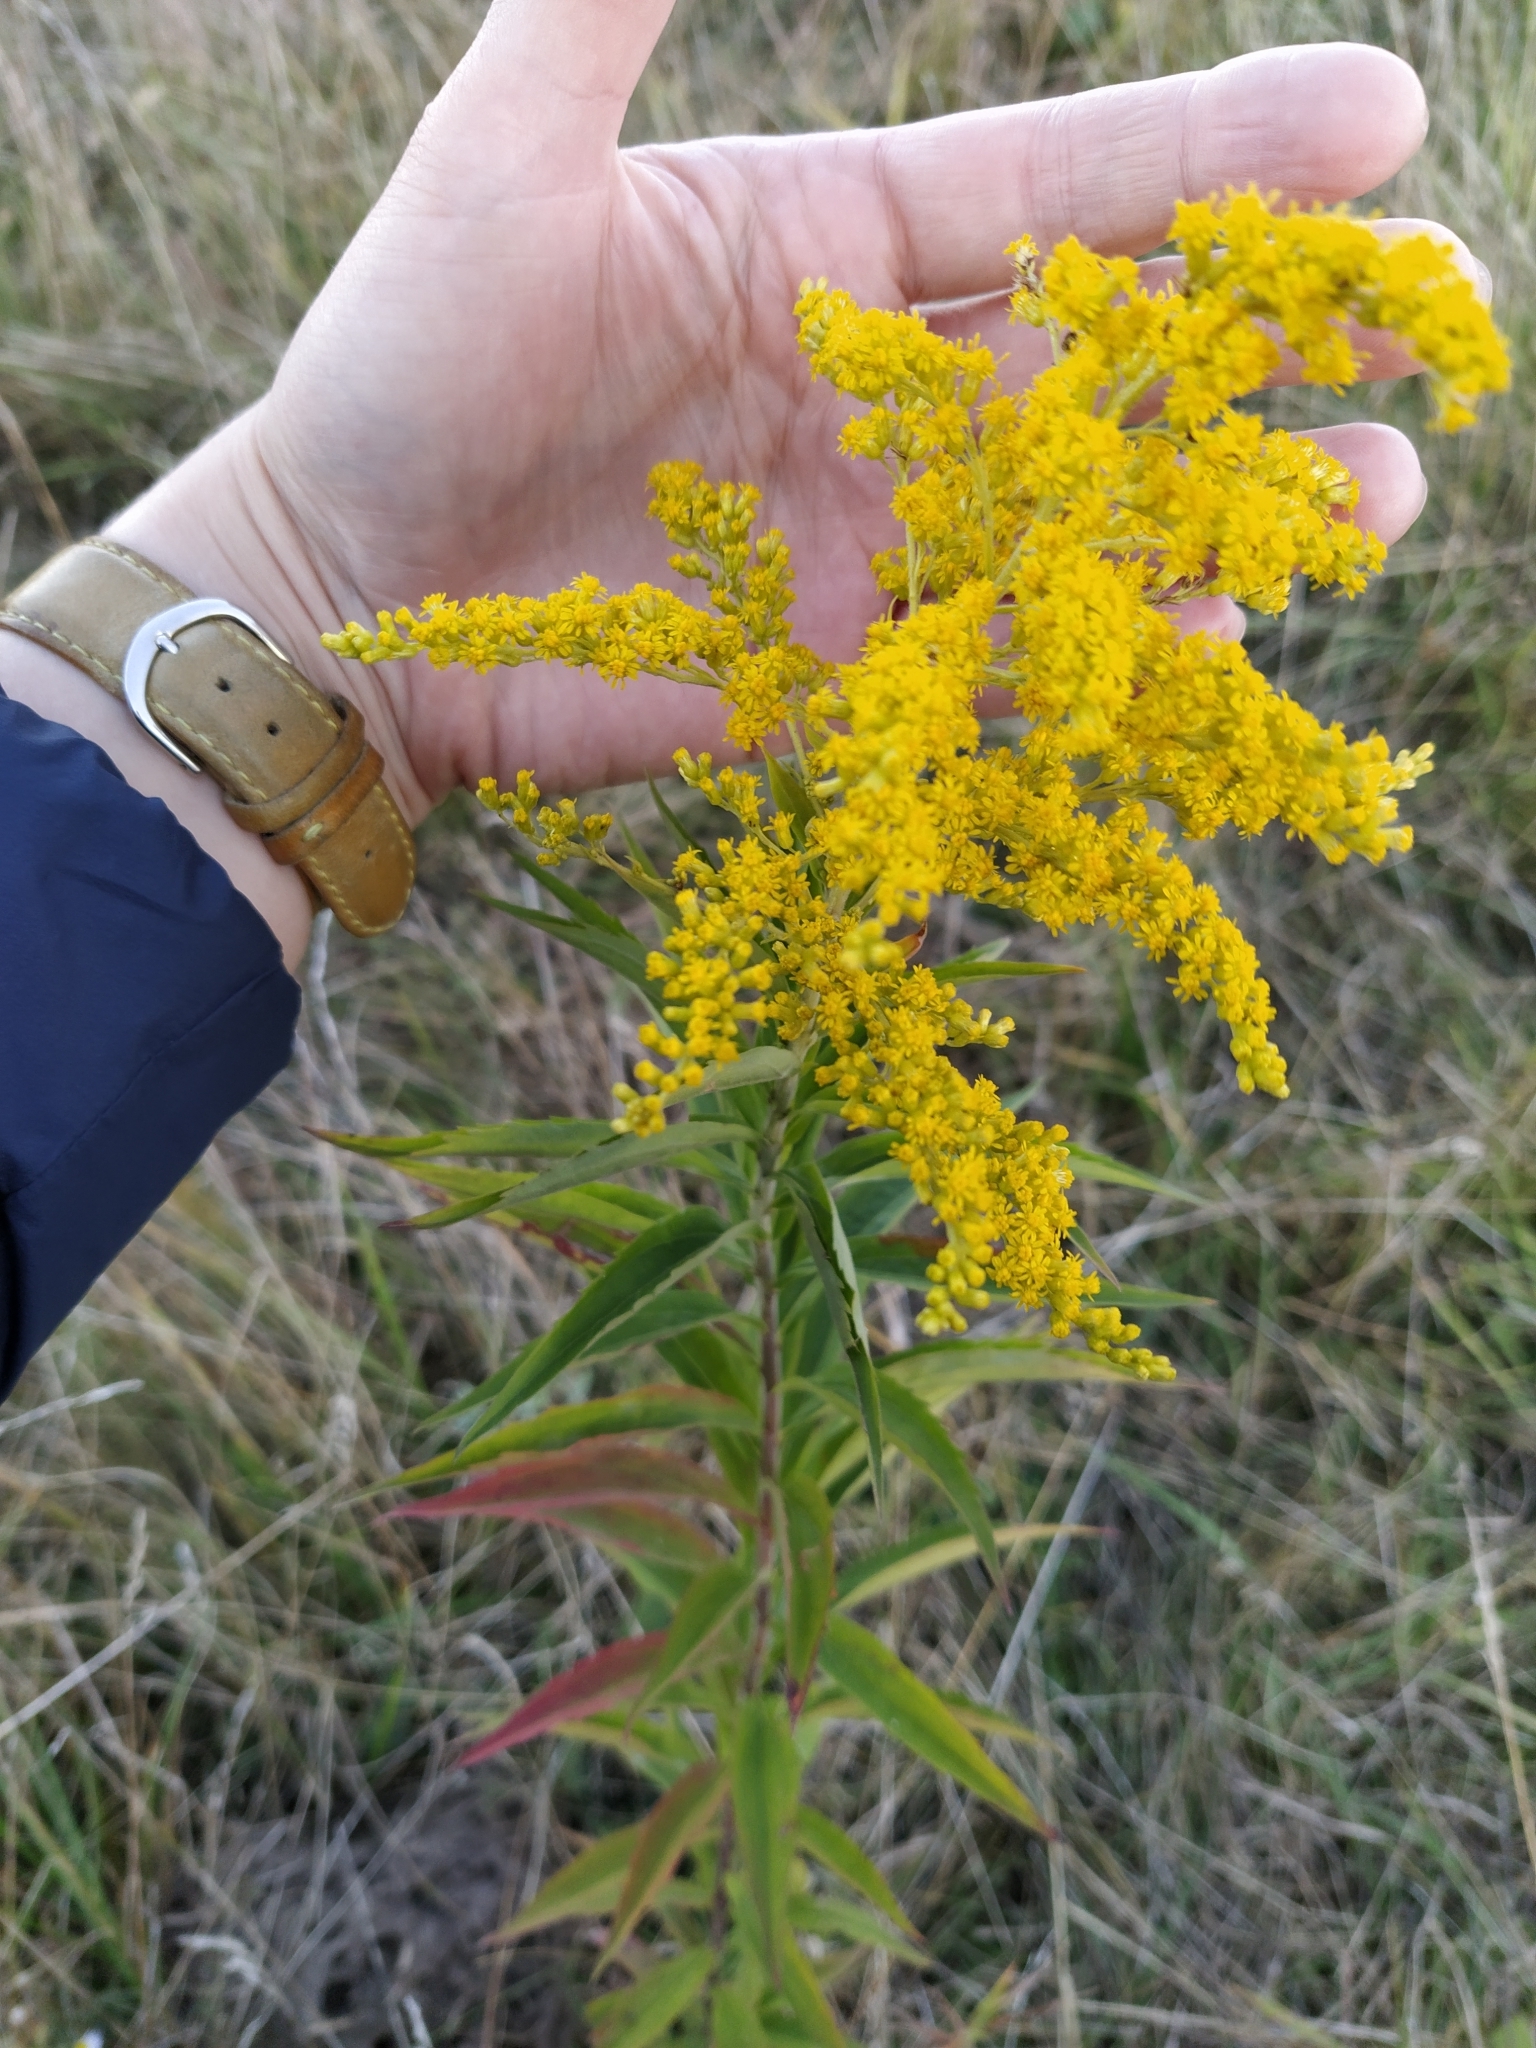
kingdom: Plantae
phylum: Tracheophyta
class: Magnoliopsida
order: Asterales
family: Asteraceae
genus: Solidago
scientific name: Solidago canadensis
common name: Canada goldenrod
